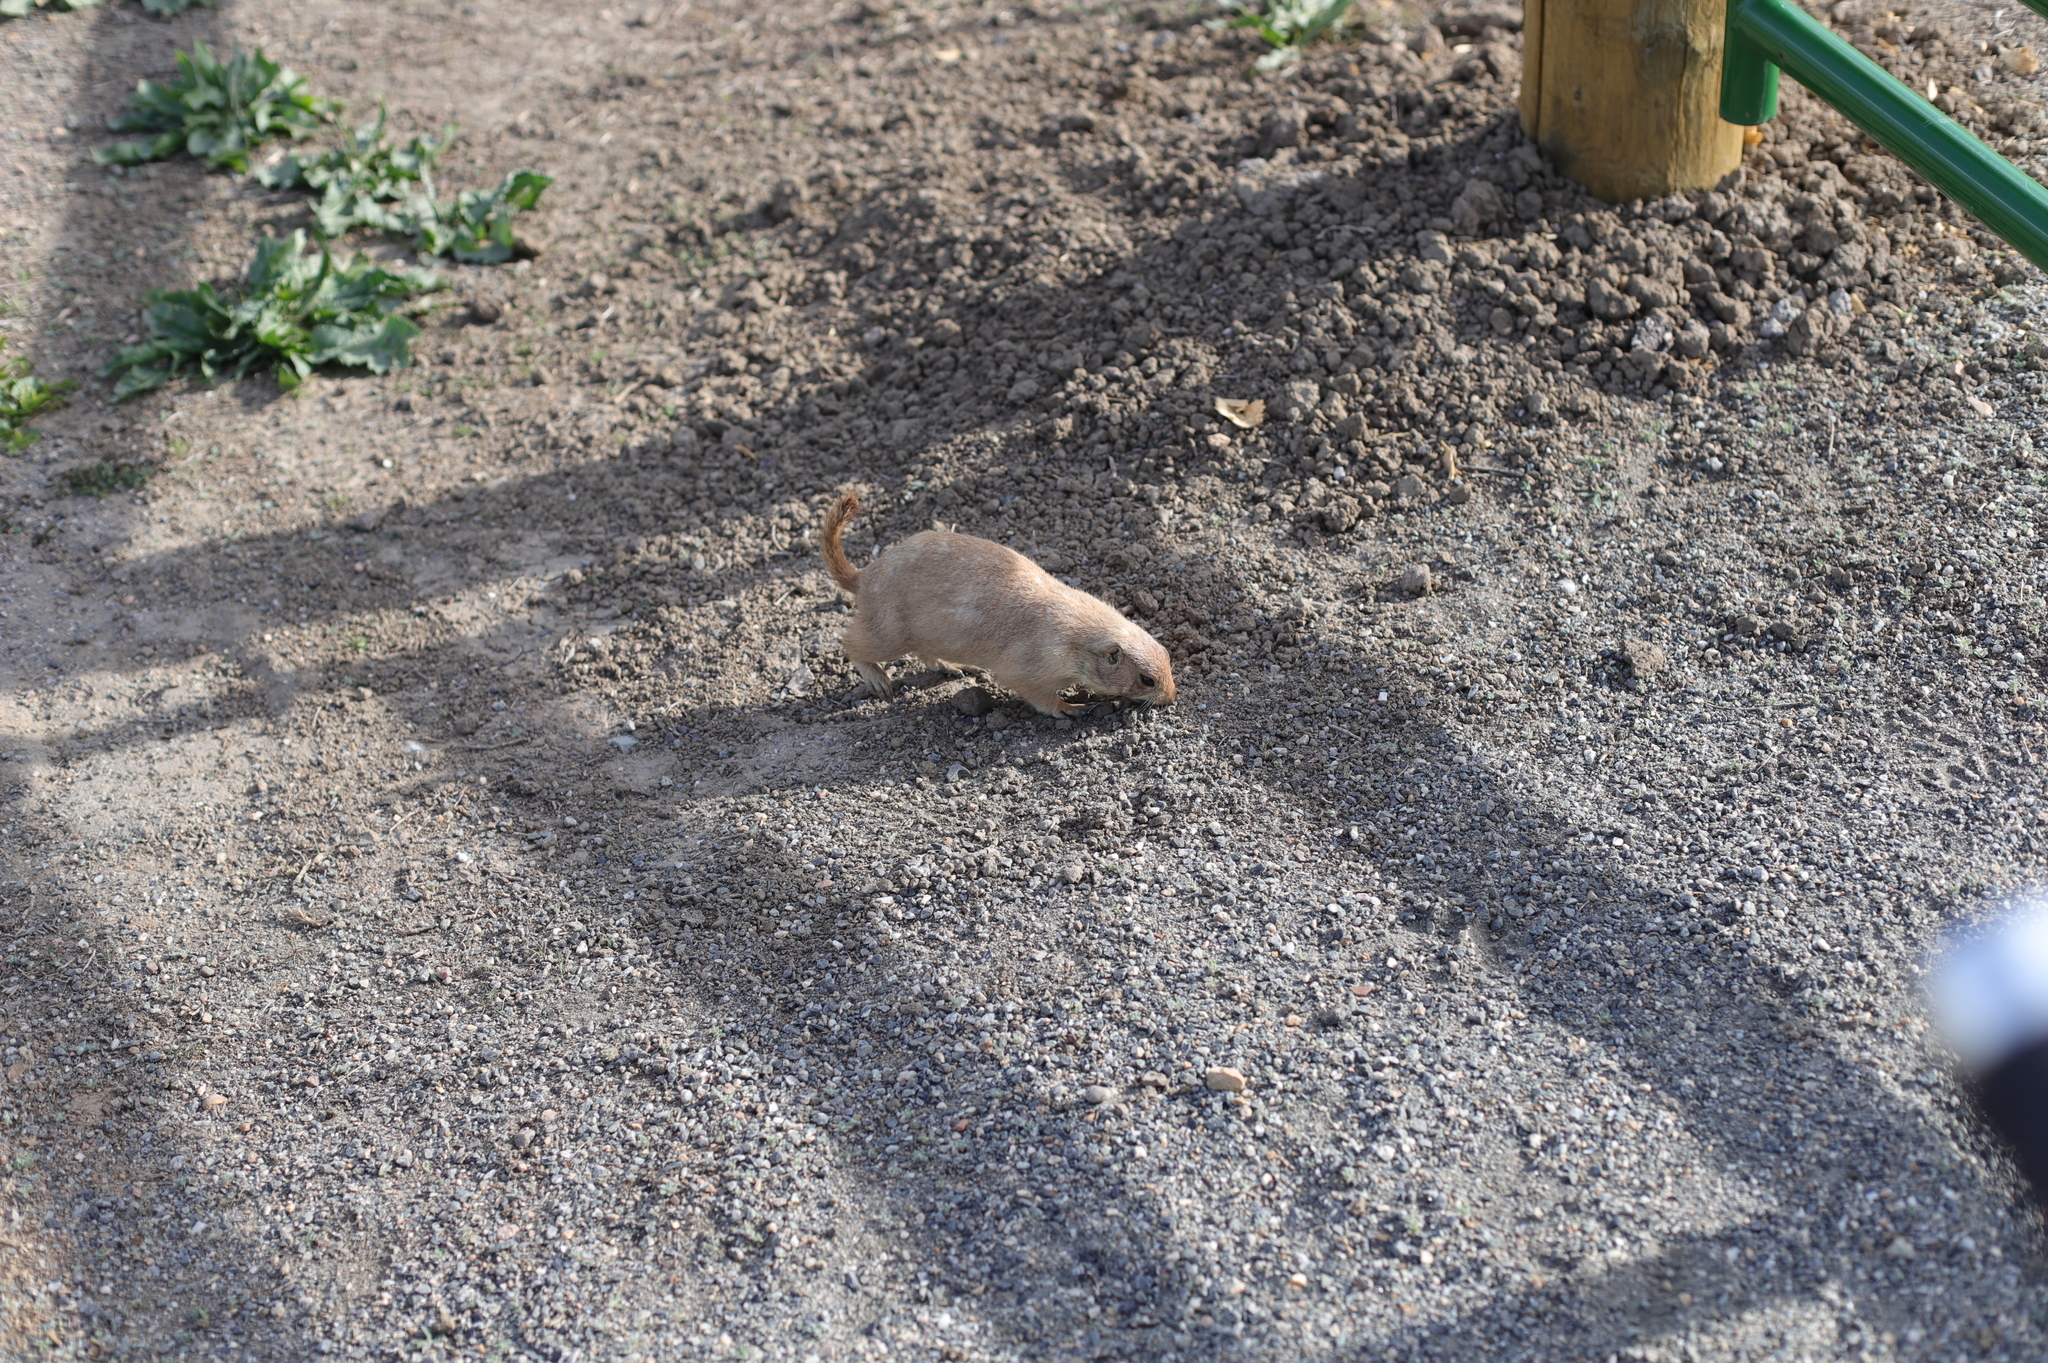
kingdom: Animalia
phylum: Chordata
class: Mammalia
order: Rodentia
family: Sciuridae
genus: Cynomys
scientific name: Cynomys ludovicianus
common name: Black-tailed prairie dog
